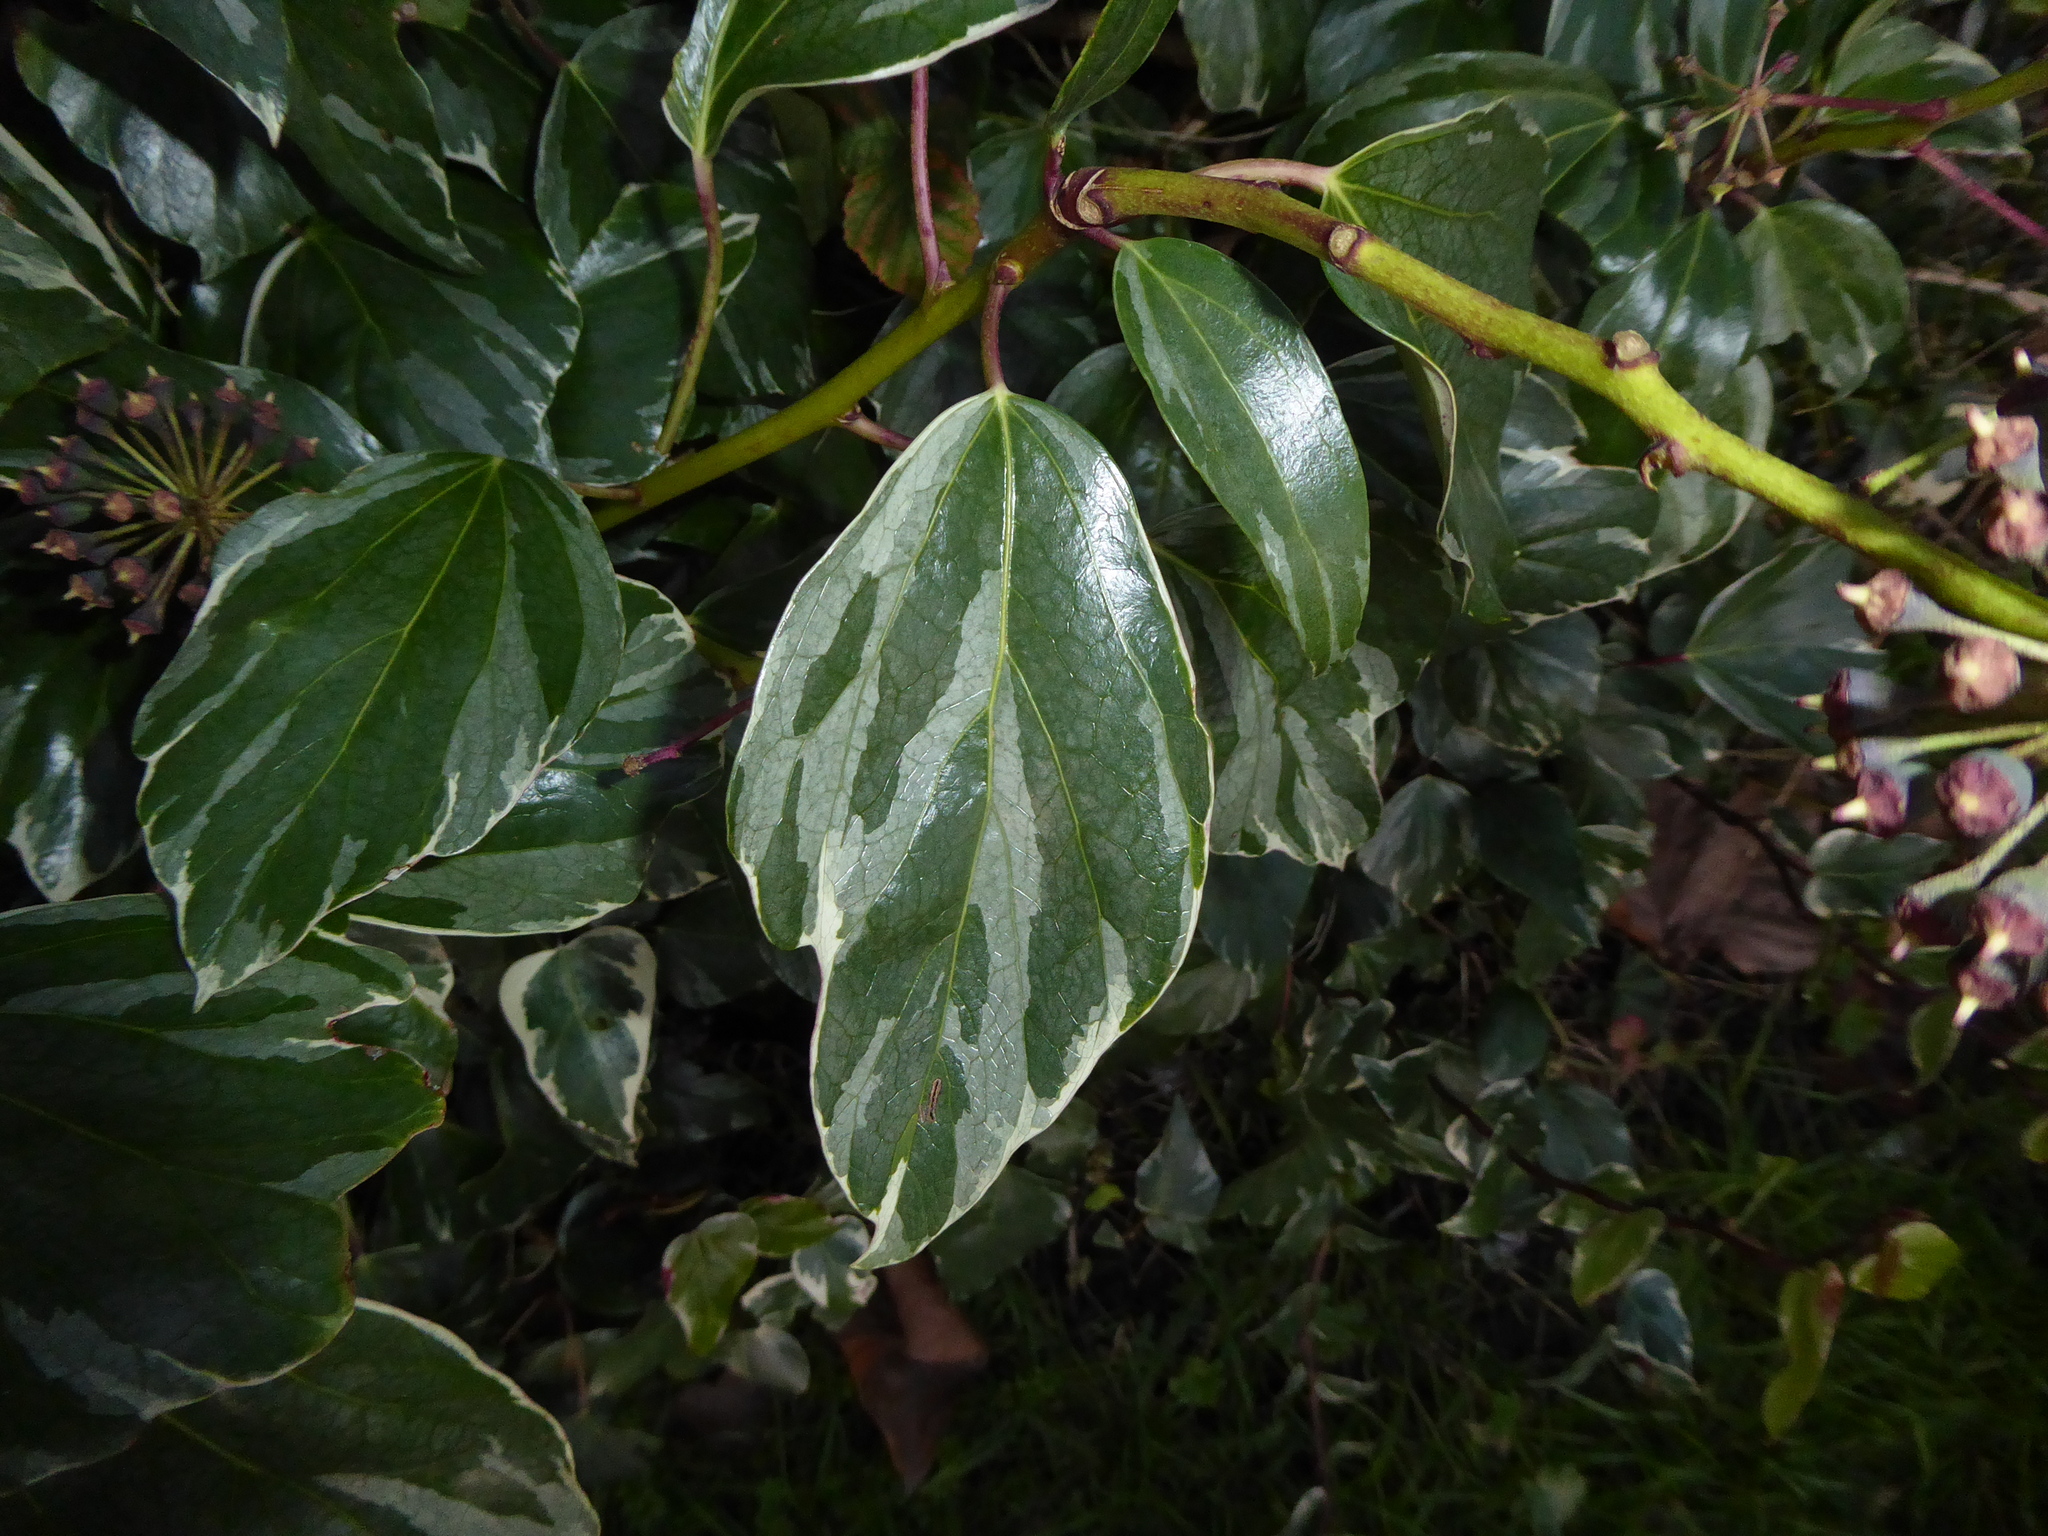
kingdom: Plantae
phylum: Tracheophyta
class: Magnoliopsida
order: Apiales
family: Araliaceae
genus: Hedera
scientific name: Hedera algeriensis
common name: Algerian ivy
